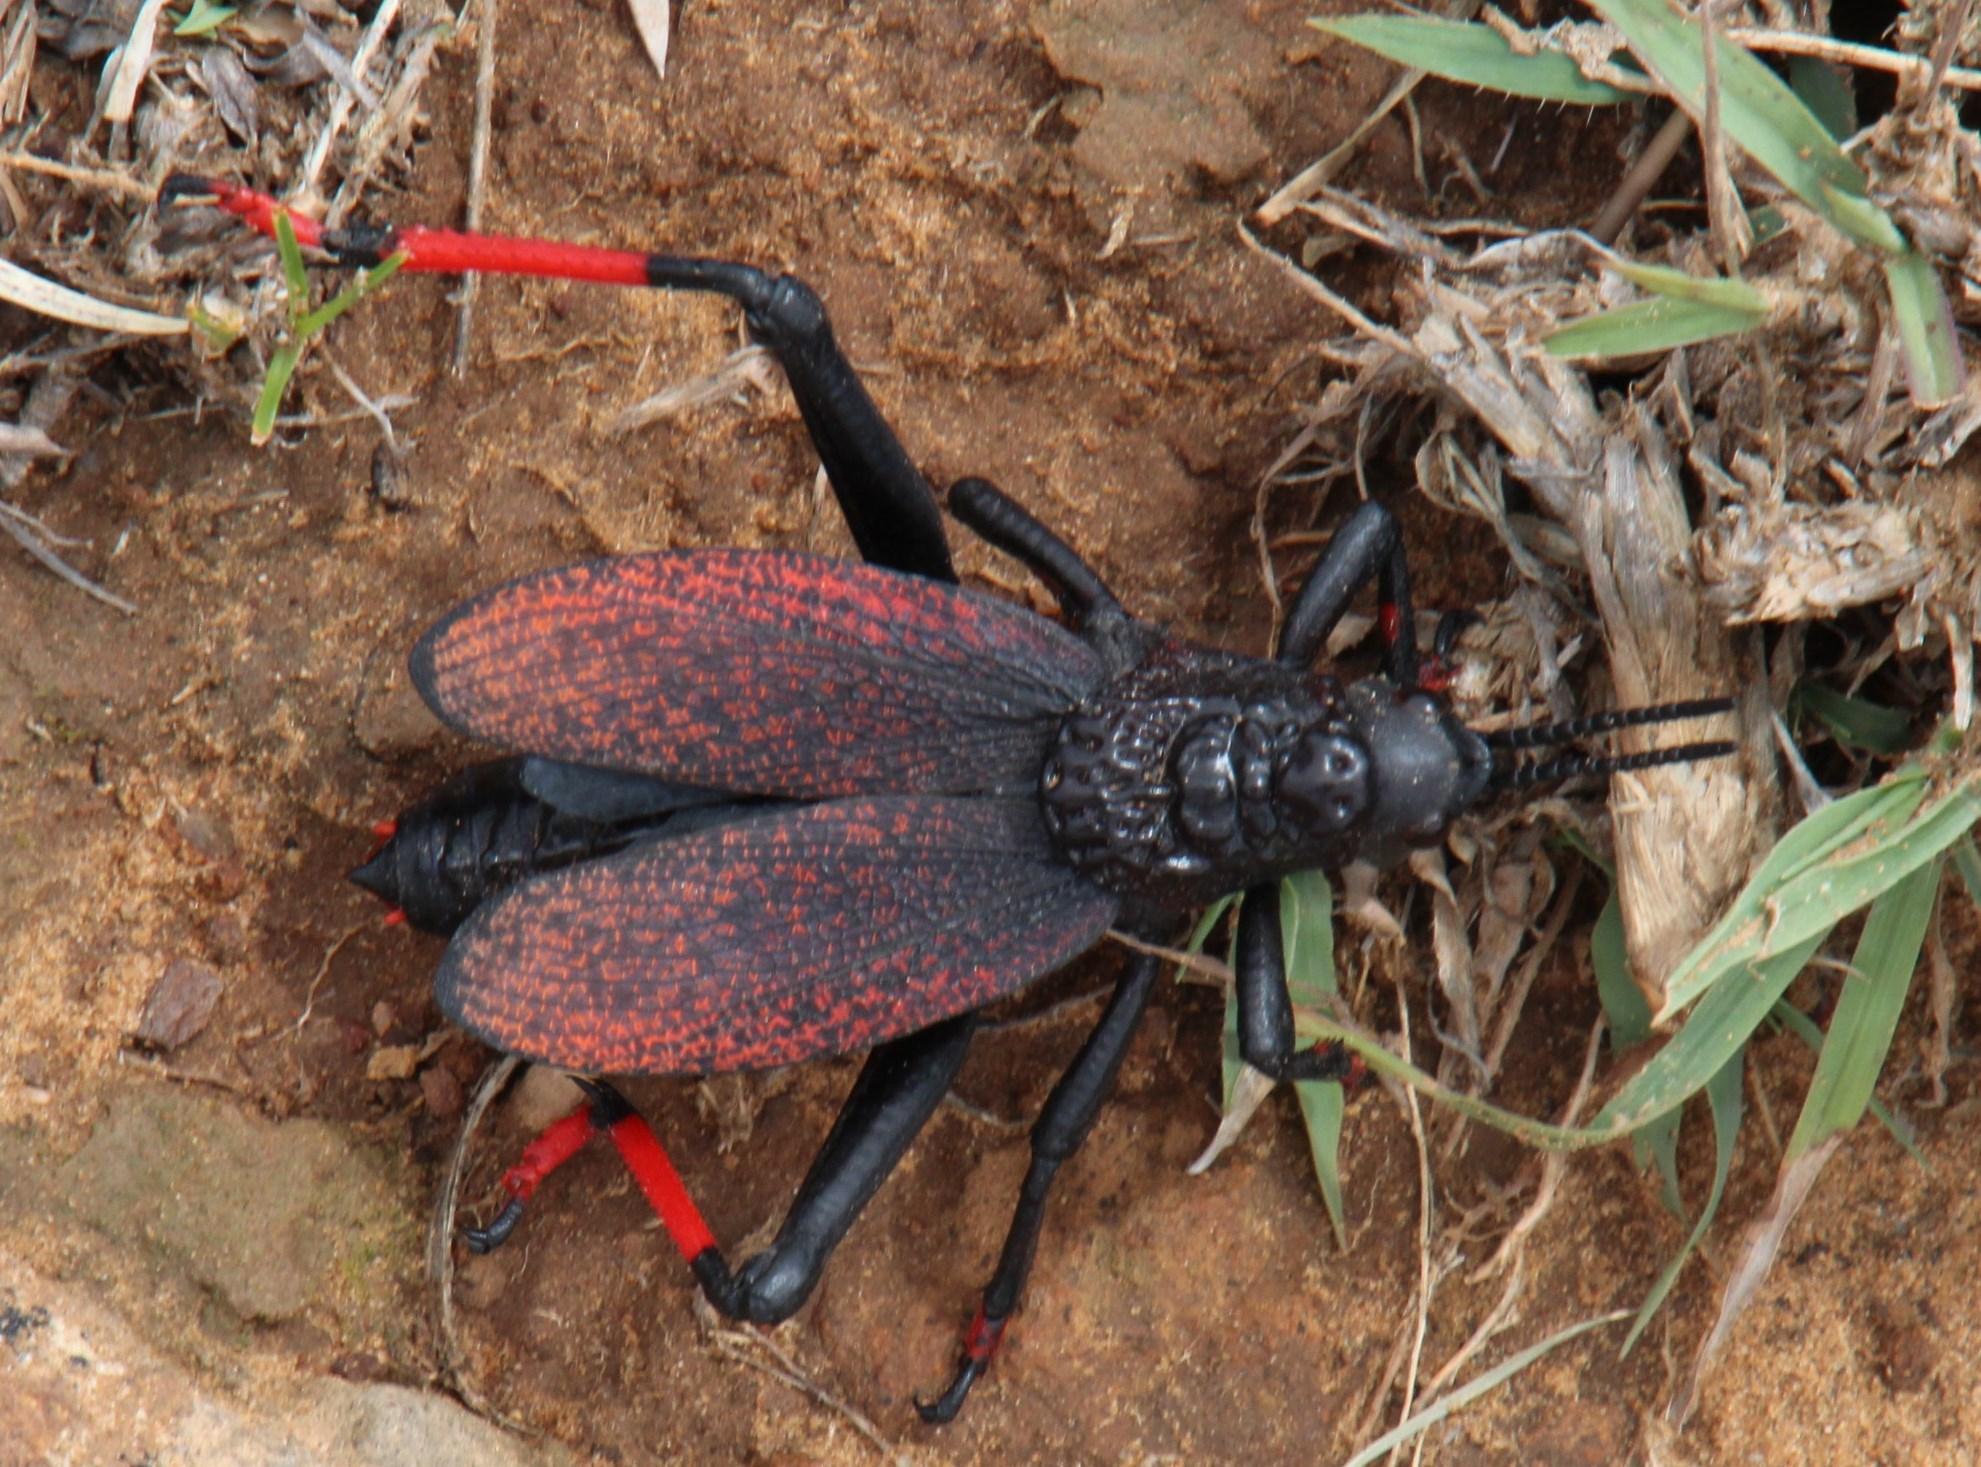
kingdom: Animalia
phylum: Arthropoda
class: Insecta
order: Orthoptera
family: Pyrgomorphidae
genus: Dictyophorus
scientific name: Dictyophorus spumans
